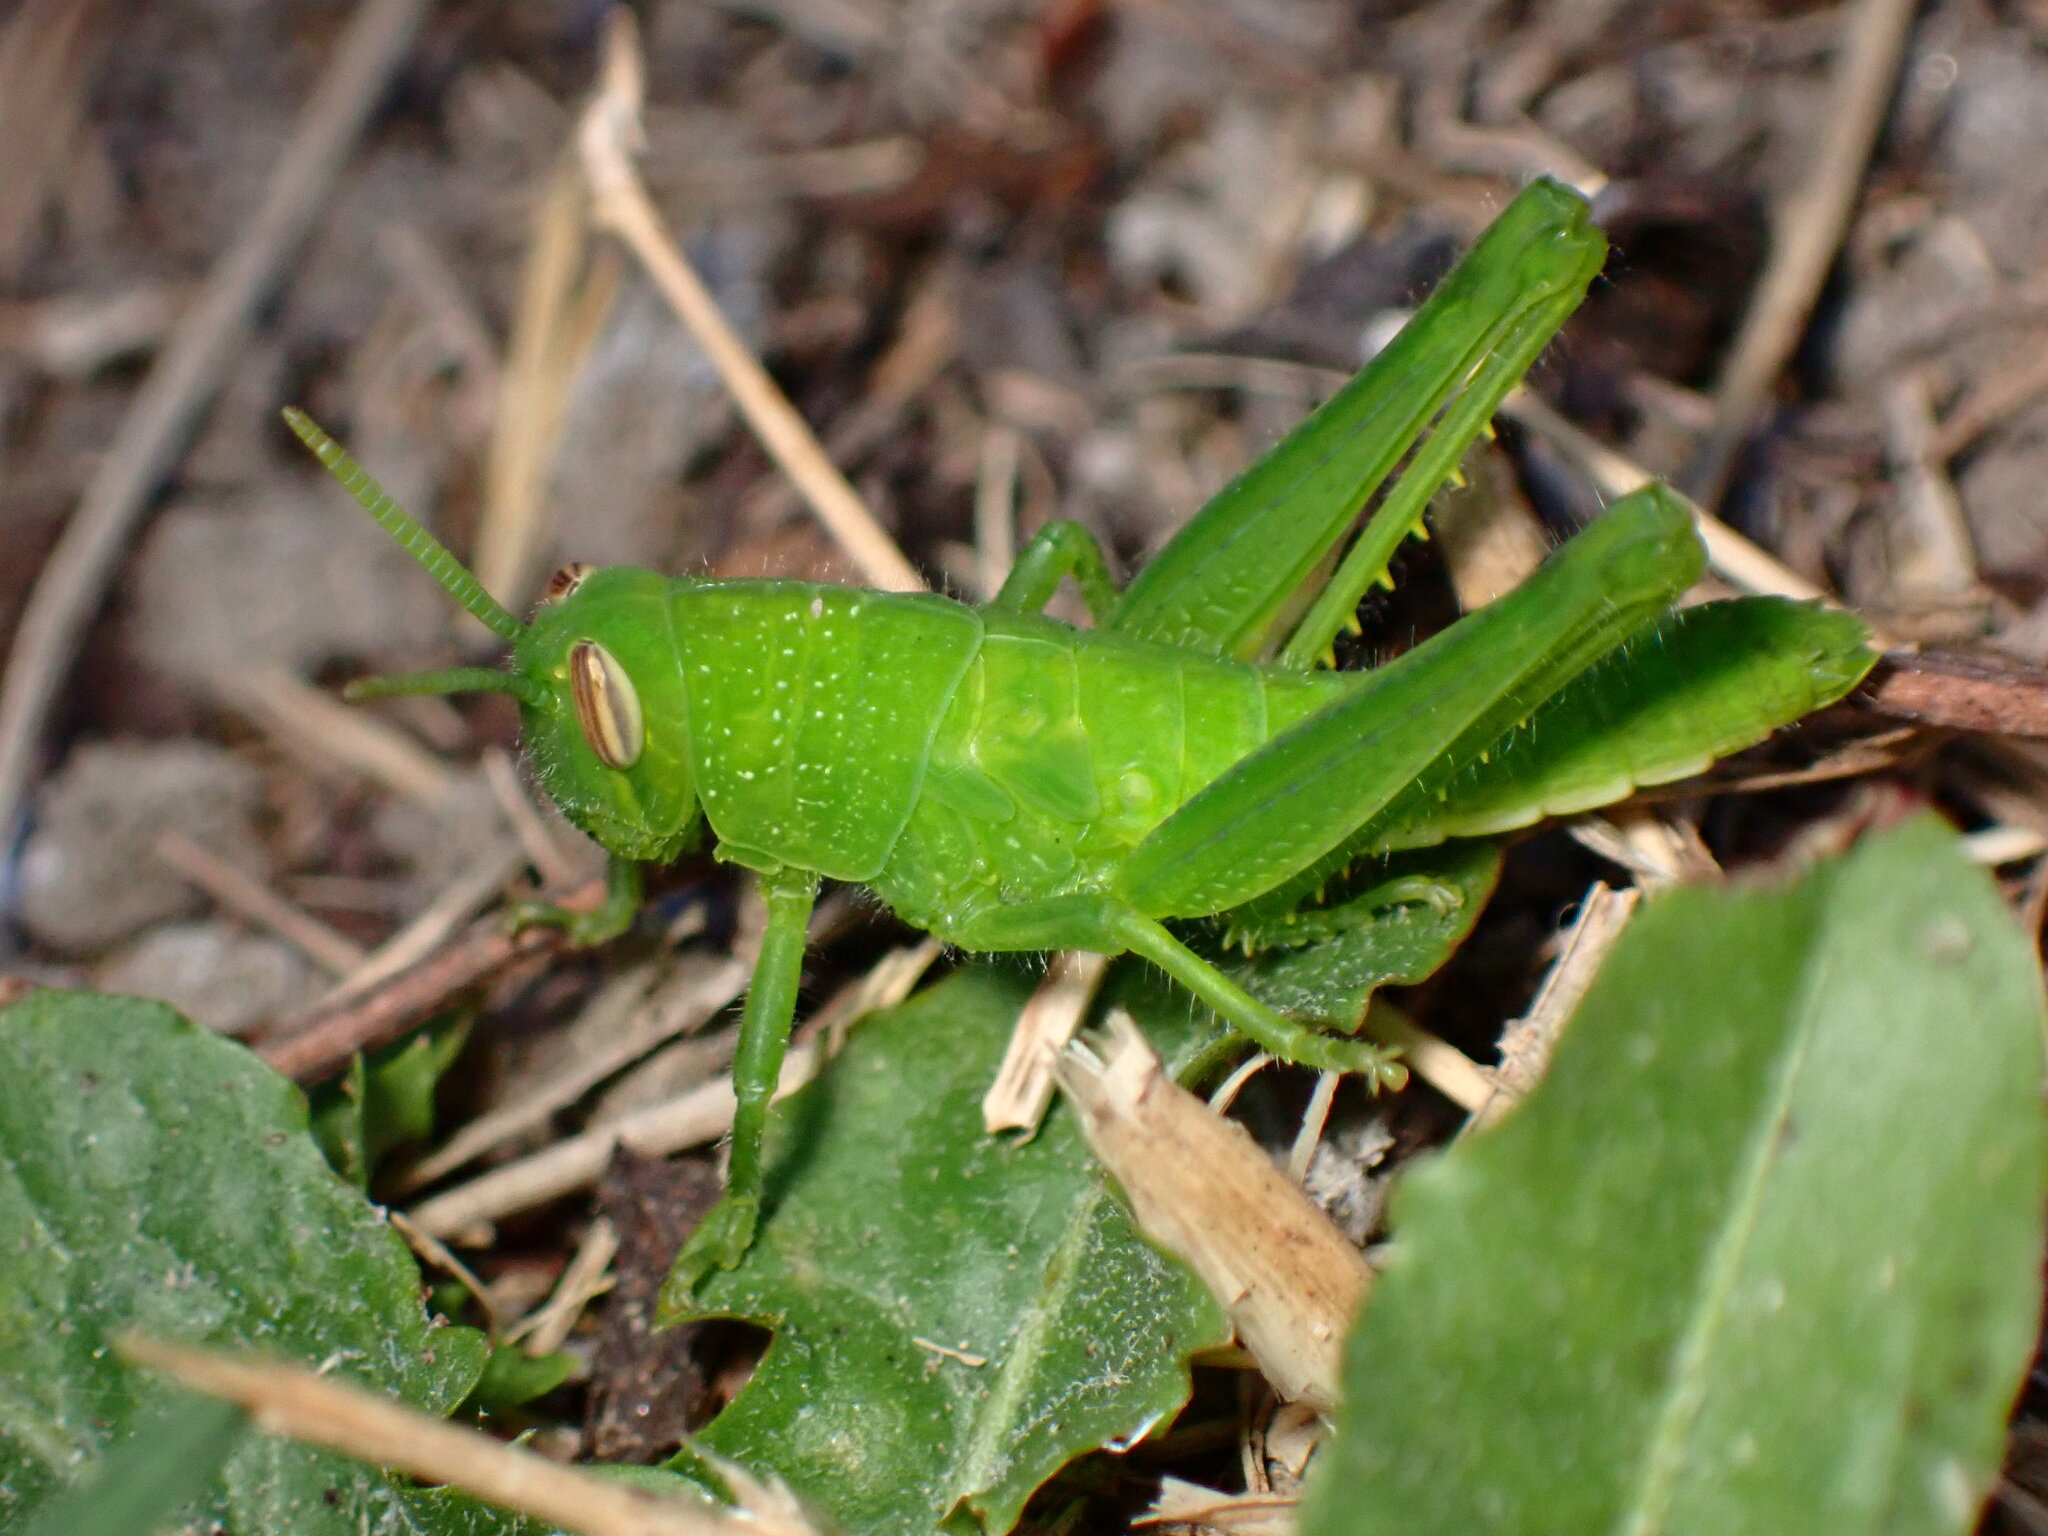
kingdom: Animalia
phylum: Arthropoda
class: Insecta
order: Orthoptera
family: Acrididae
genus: Schistocerca
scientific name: Schistocerca nitens
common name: Vagrant grasshopper
